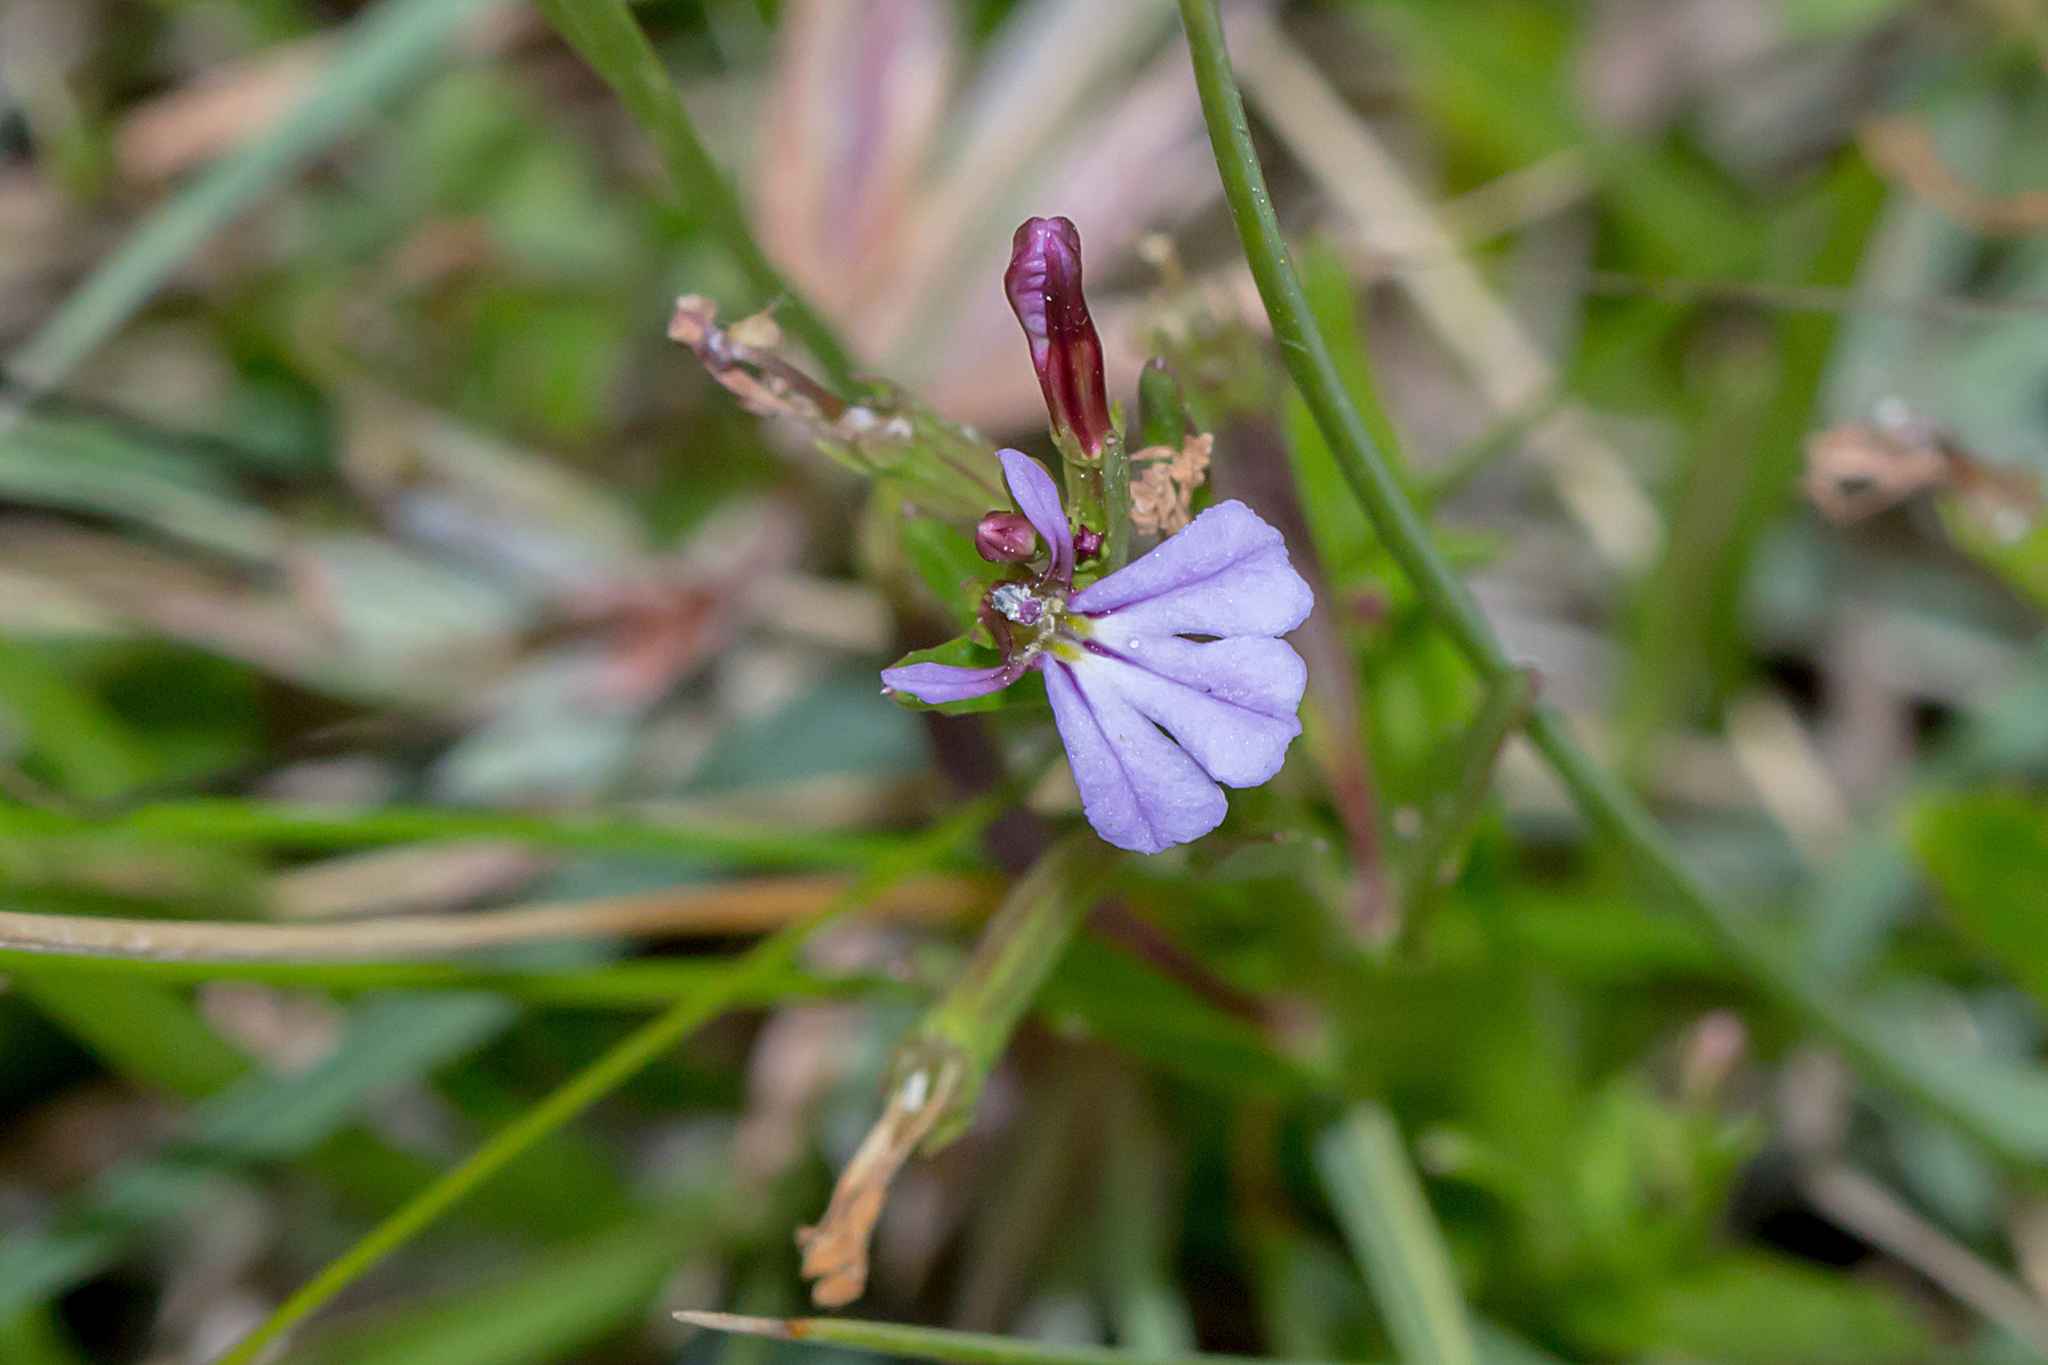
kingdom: Plantae
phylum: Tracheophyta
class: Magnoliopsida
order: Asterales
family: Campanulaceae
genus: Lobelia
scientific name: Lobelia anceps
